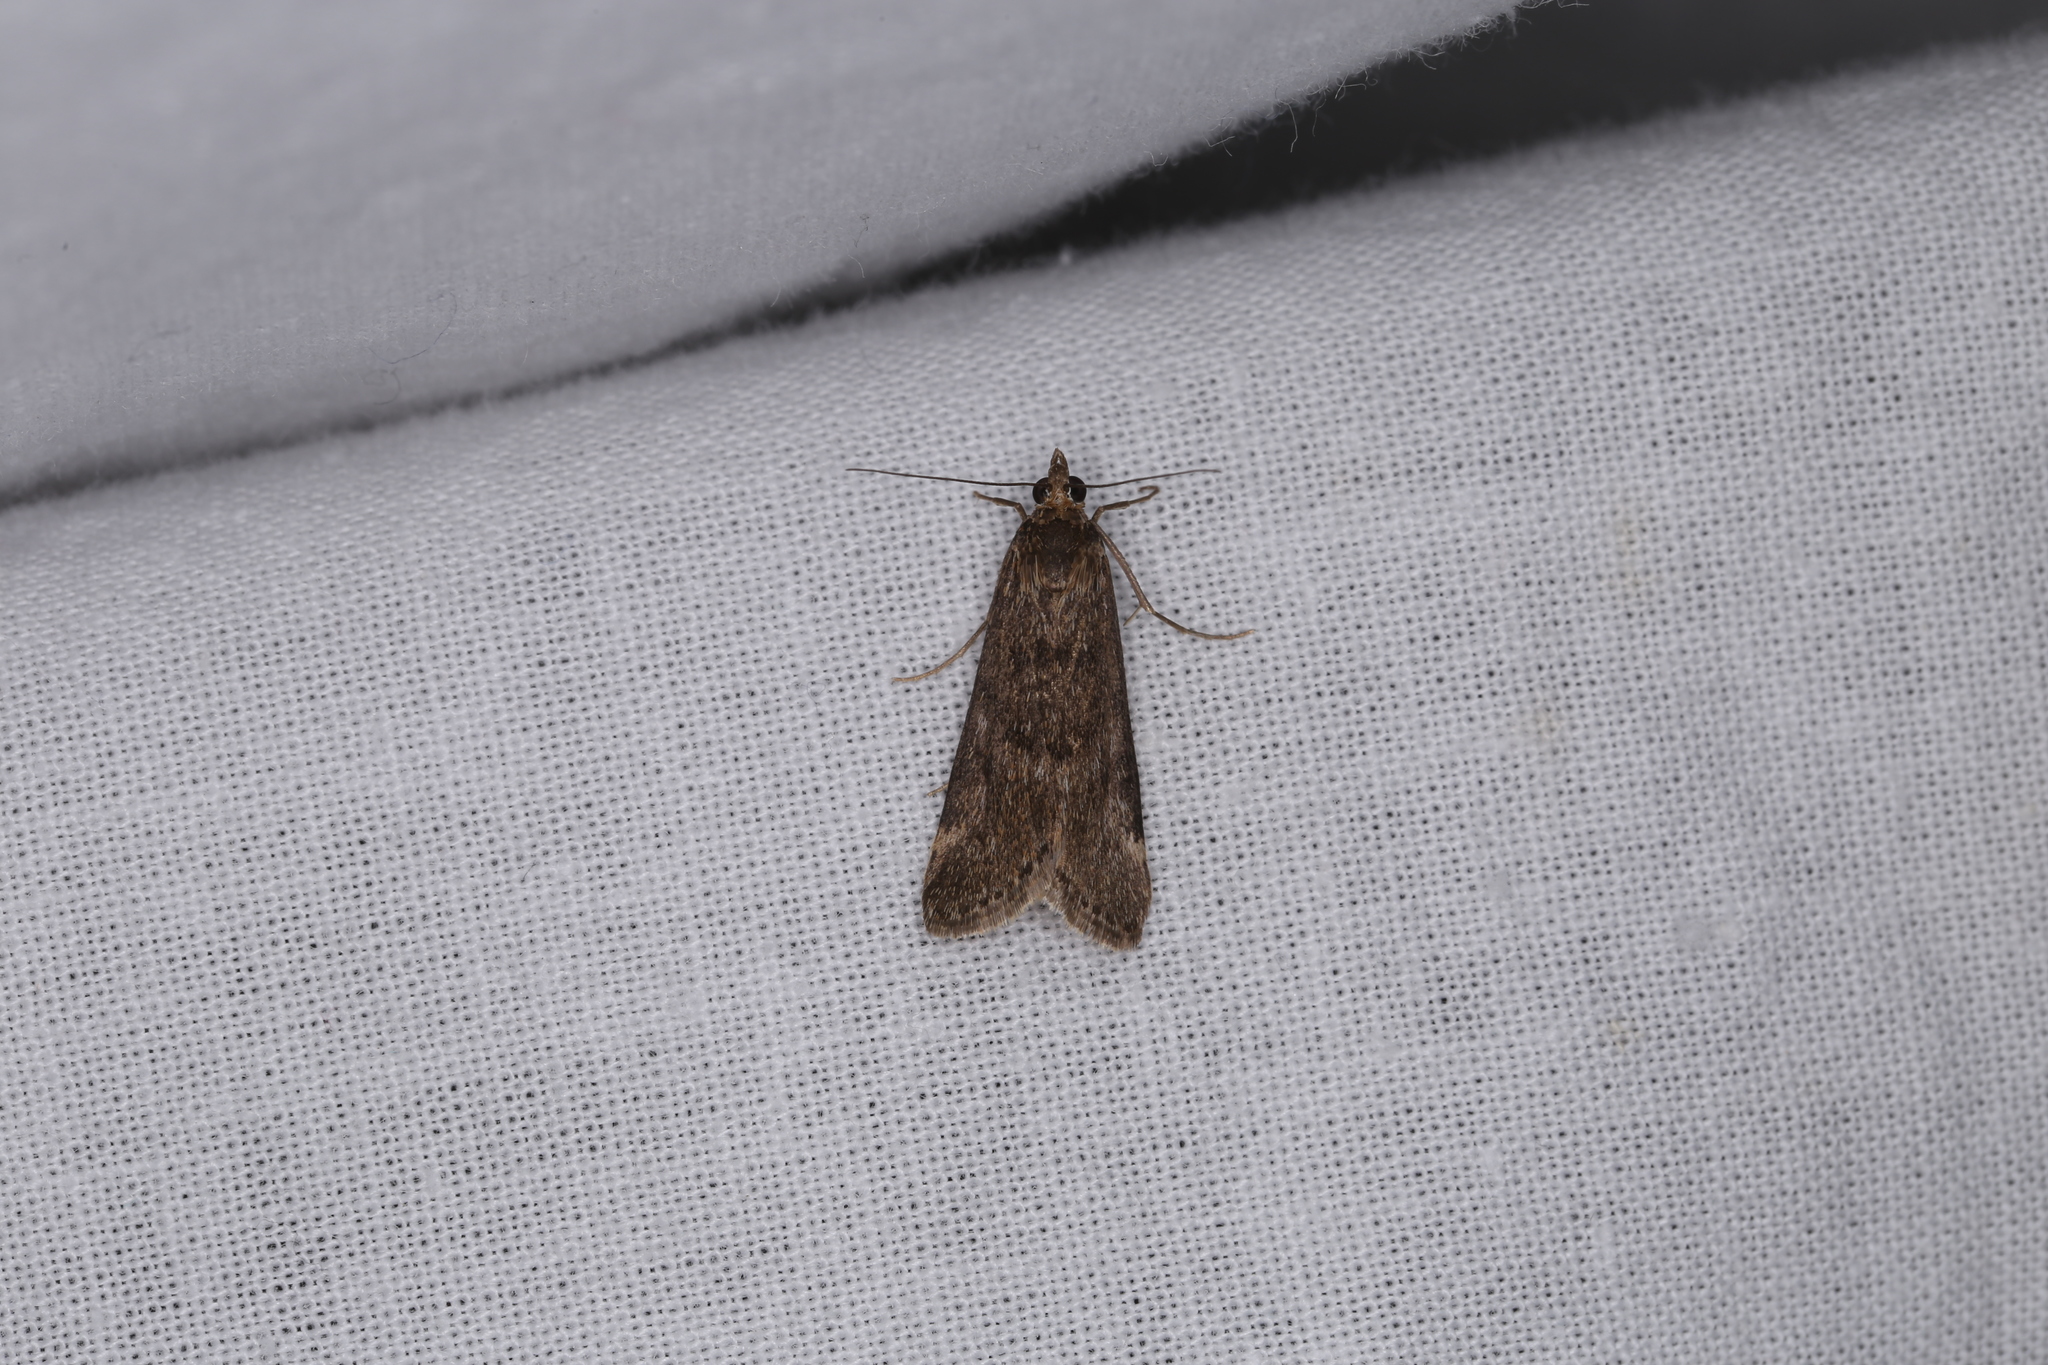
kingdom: Animalia
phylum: Arthropoda
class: Insecta
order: Lepidoptera
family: Crambidae
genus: Achyra
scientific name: Achyra affinitalis
